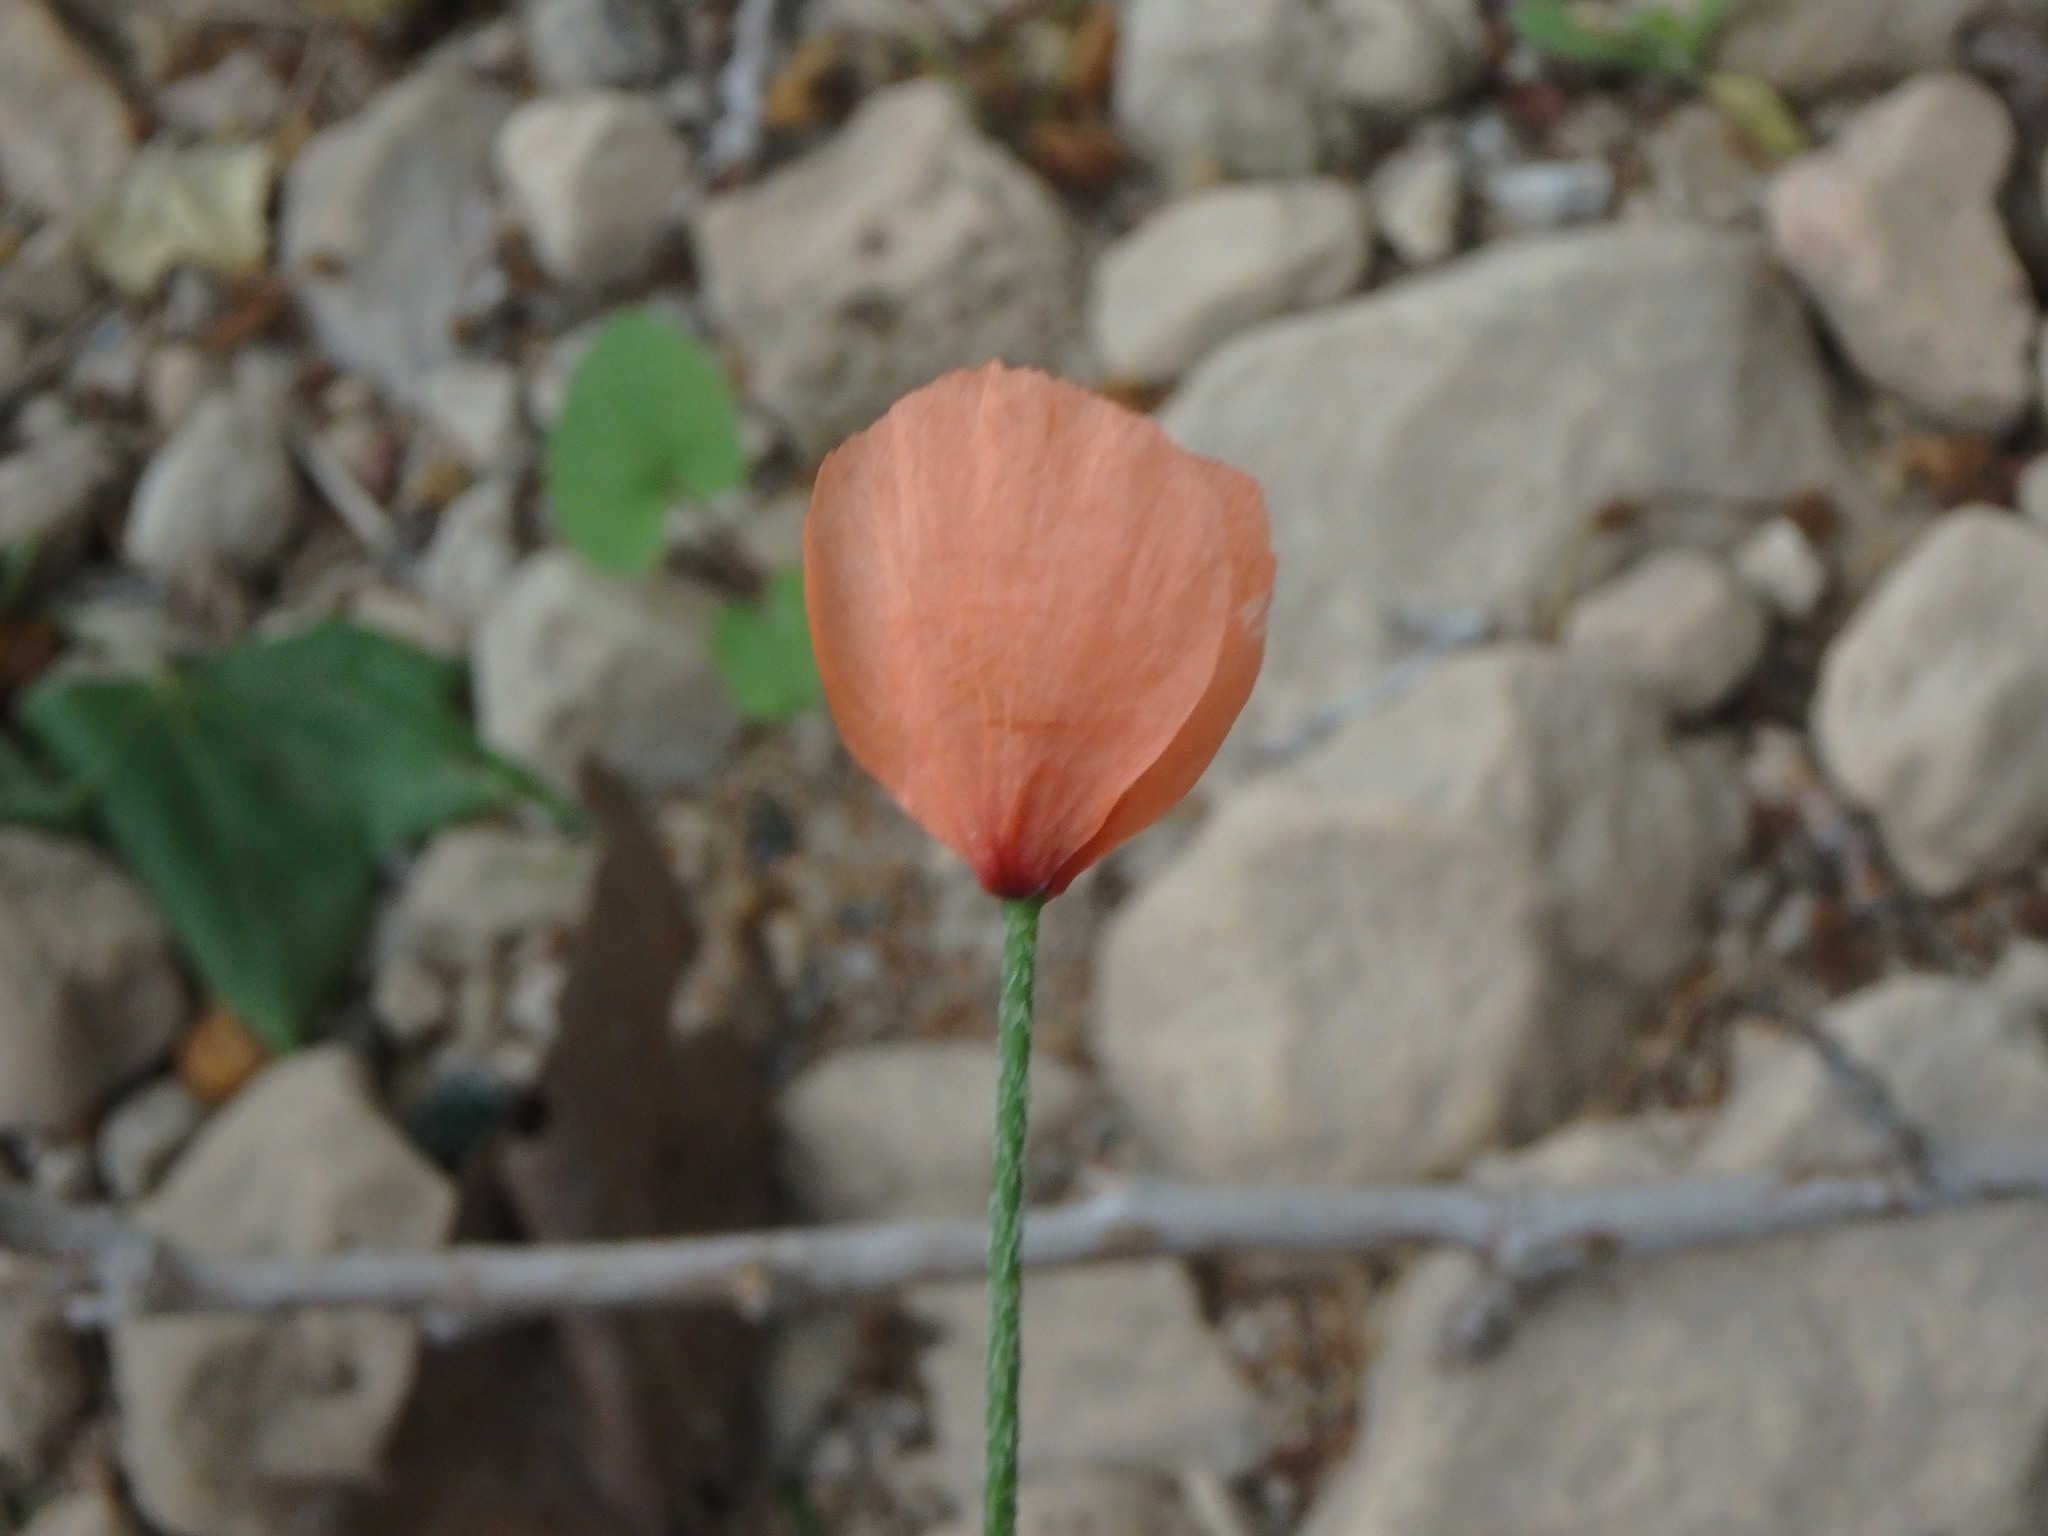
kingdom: Plantae
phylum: Tracheophyta
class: Magnoliopsida
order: Ranunculales
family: Papaveraceae
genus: Papaver
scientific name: Papaver dubium
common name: Long-headed poppy
